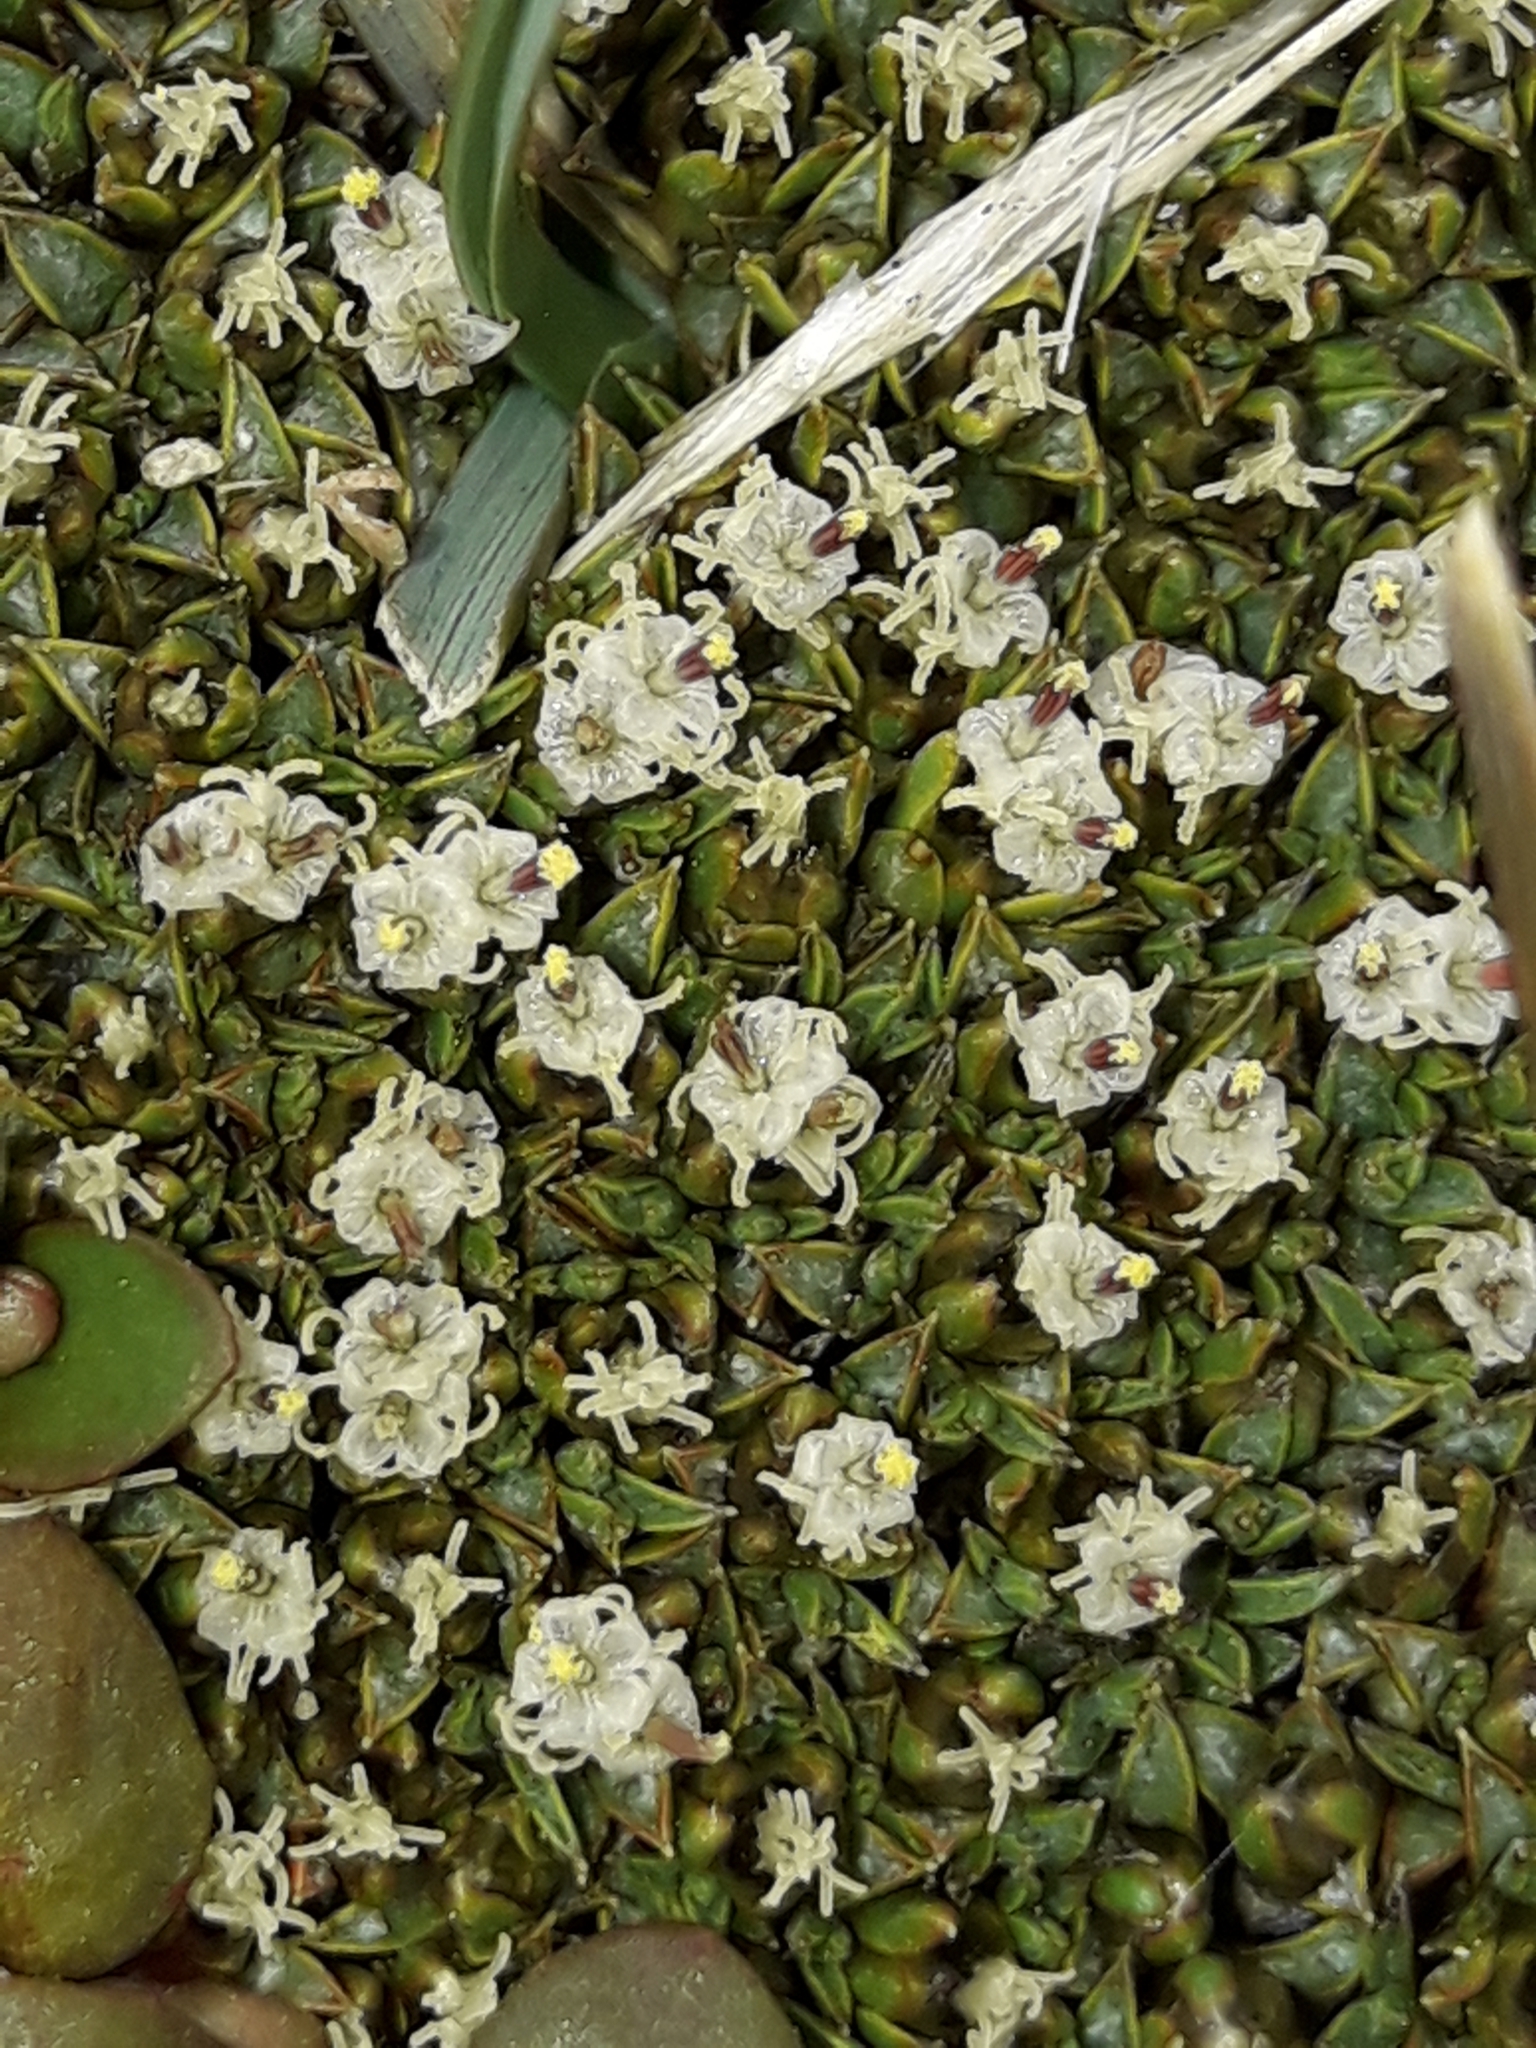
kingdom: Plantae
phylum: Tracheophyta
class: Magnoliopsida
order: Asterales
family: Asteraceae
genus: Raoulia
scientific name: Raoulia tenuicaulis
